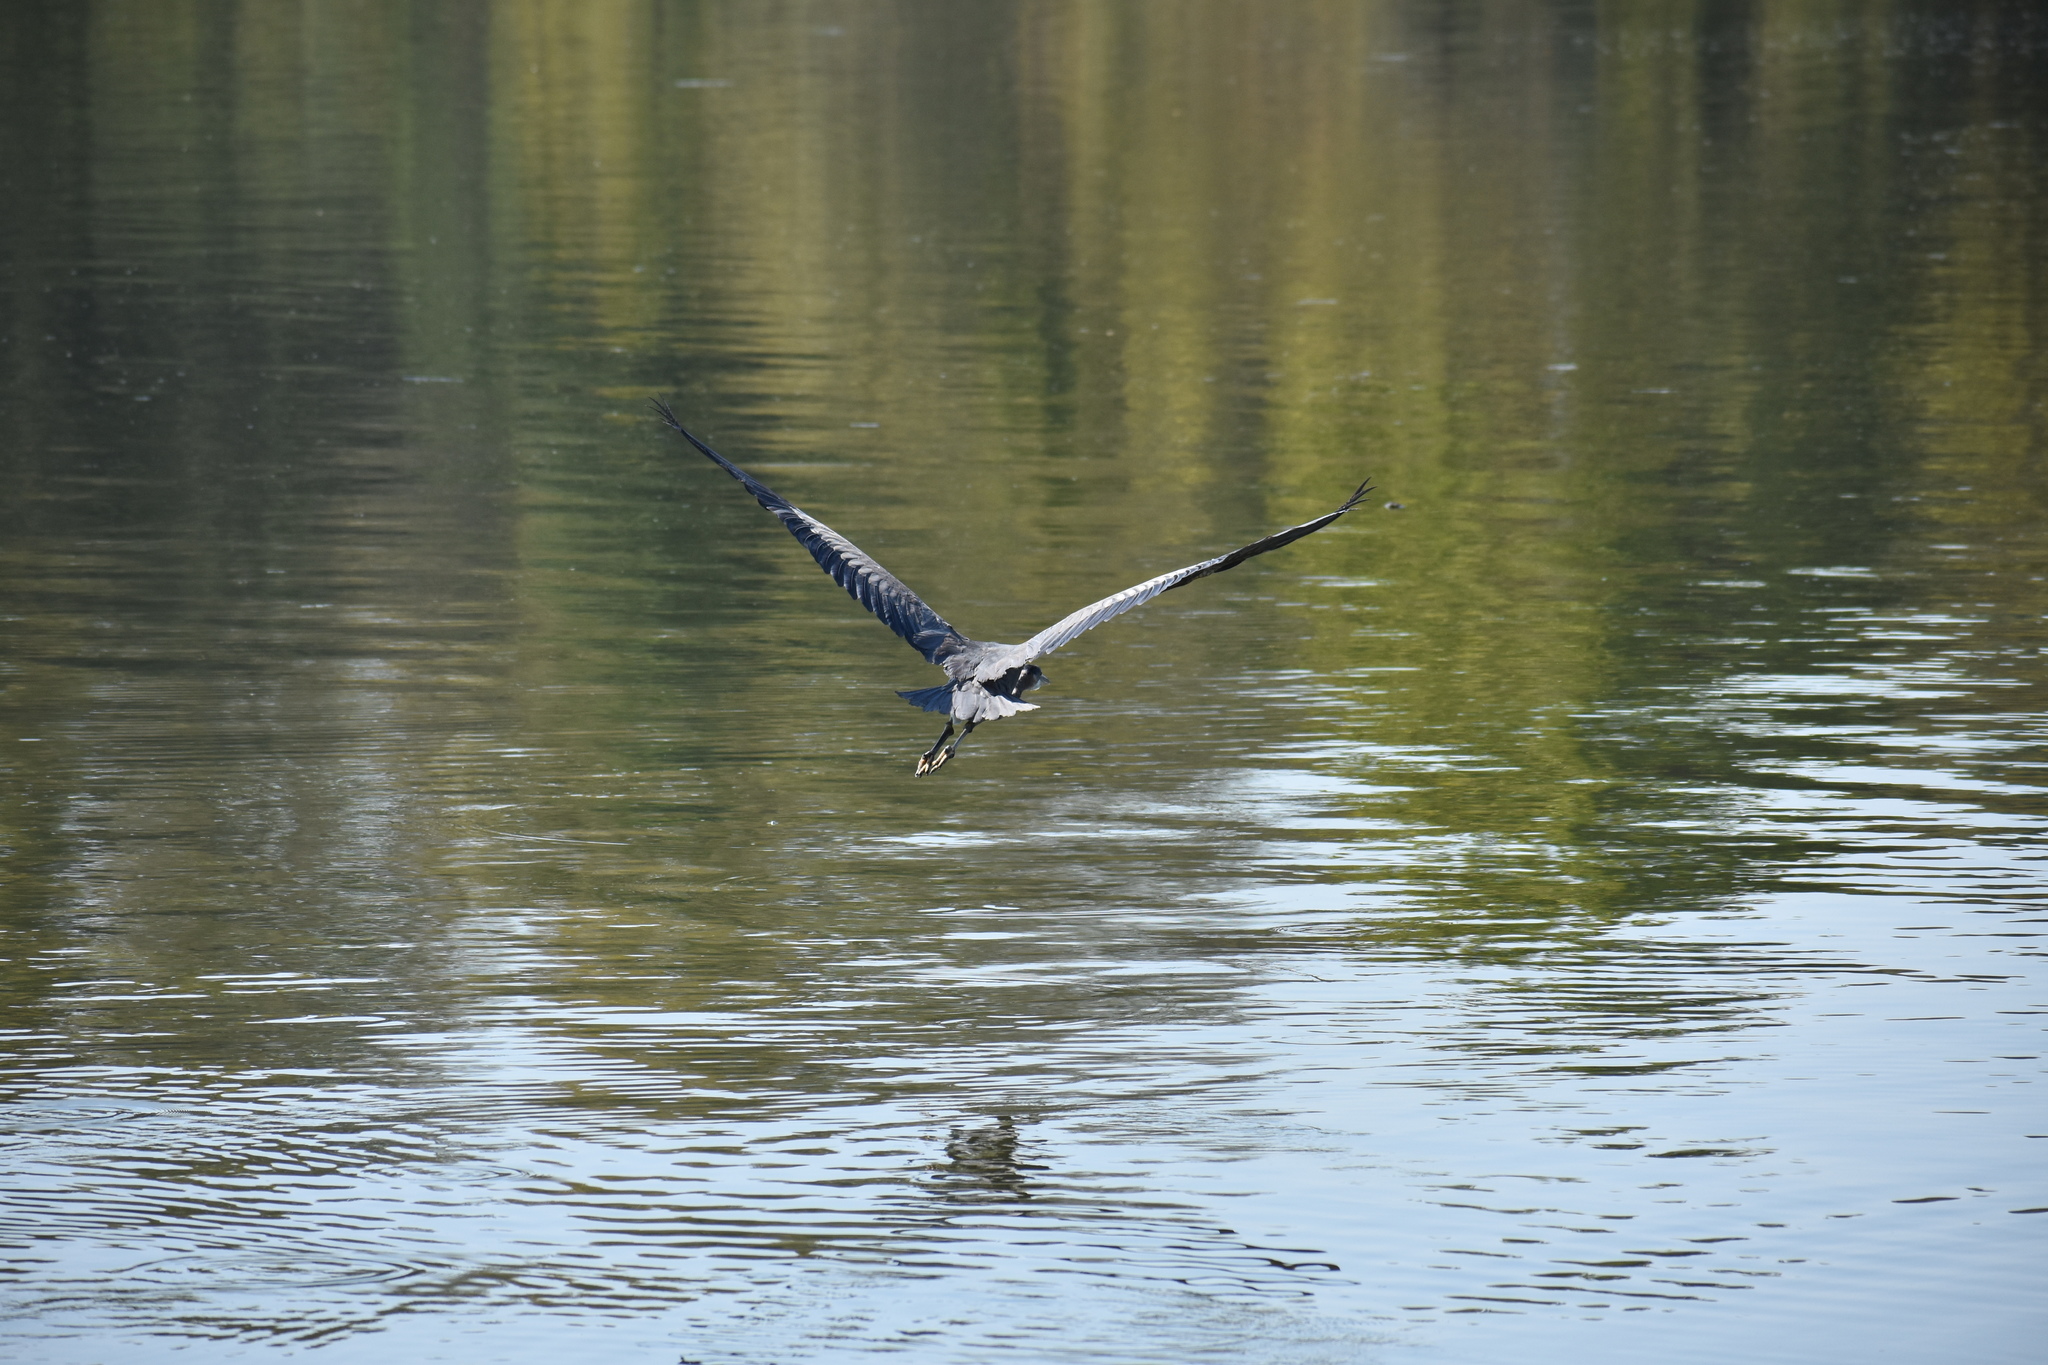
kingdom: Animalia
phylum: Chordata
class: Aves
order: Pelecaniformes
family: Ardeidae
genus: Ardea
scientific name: Ardea herodias
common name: Great blue heron
